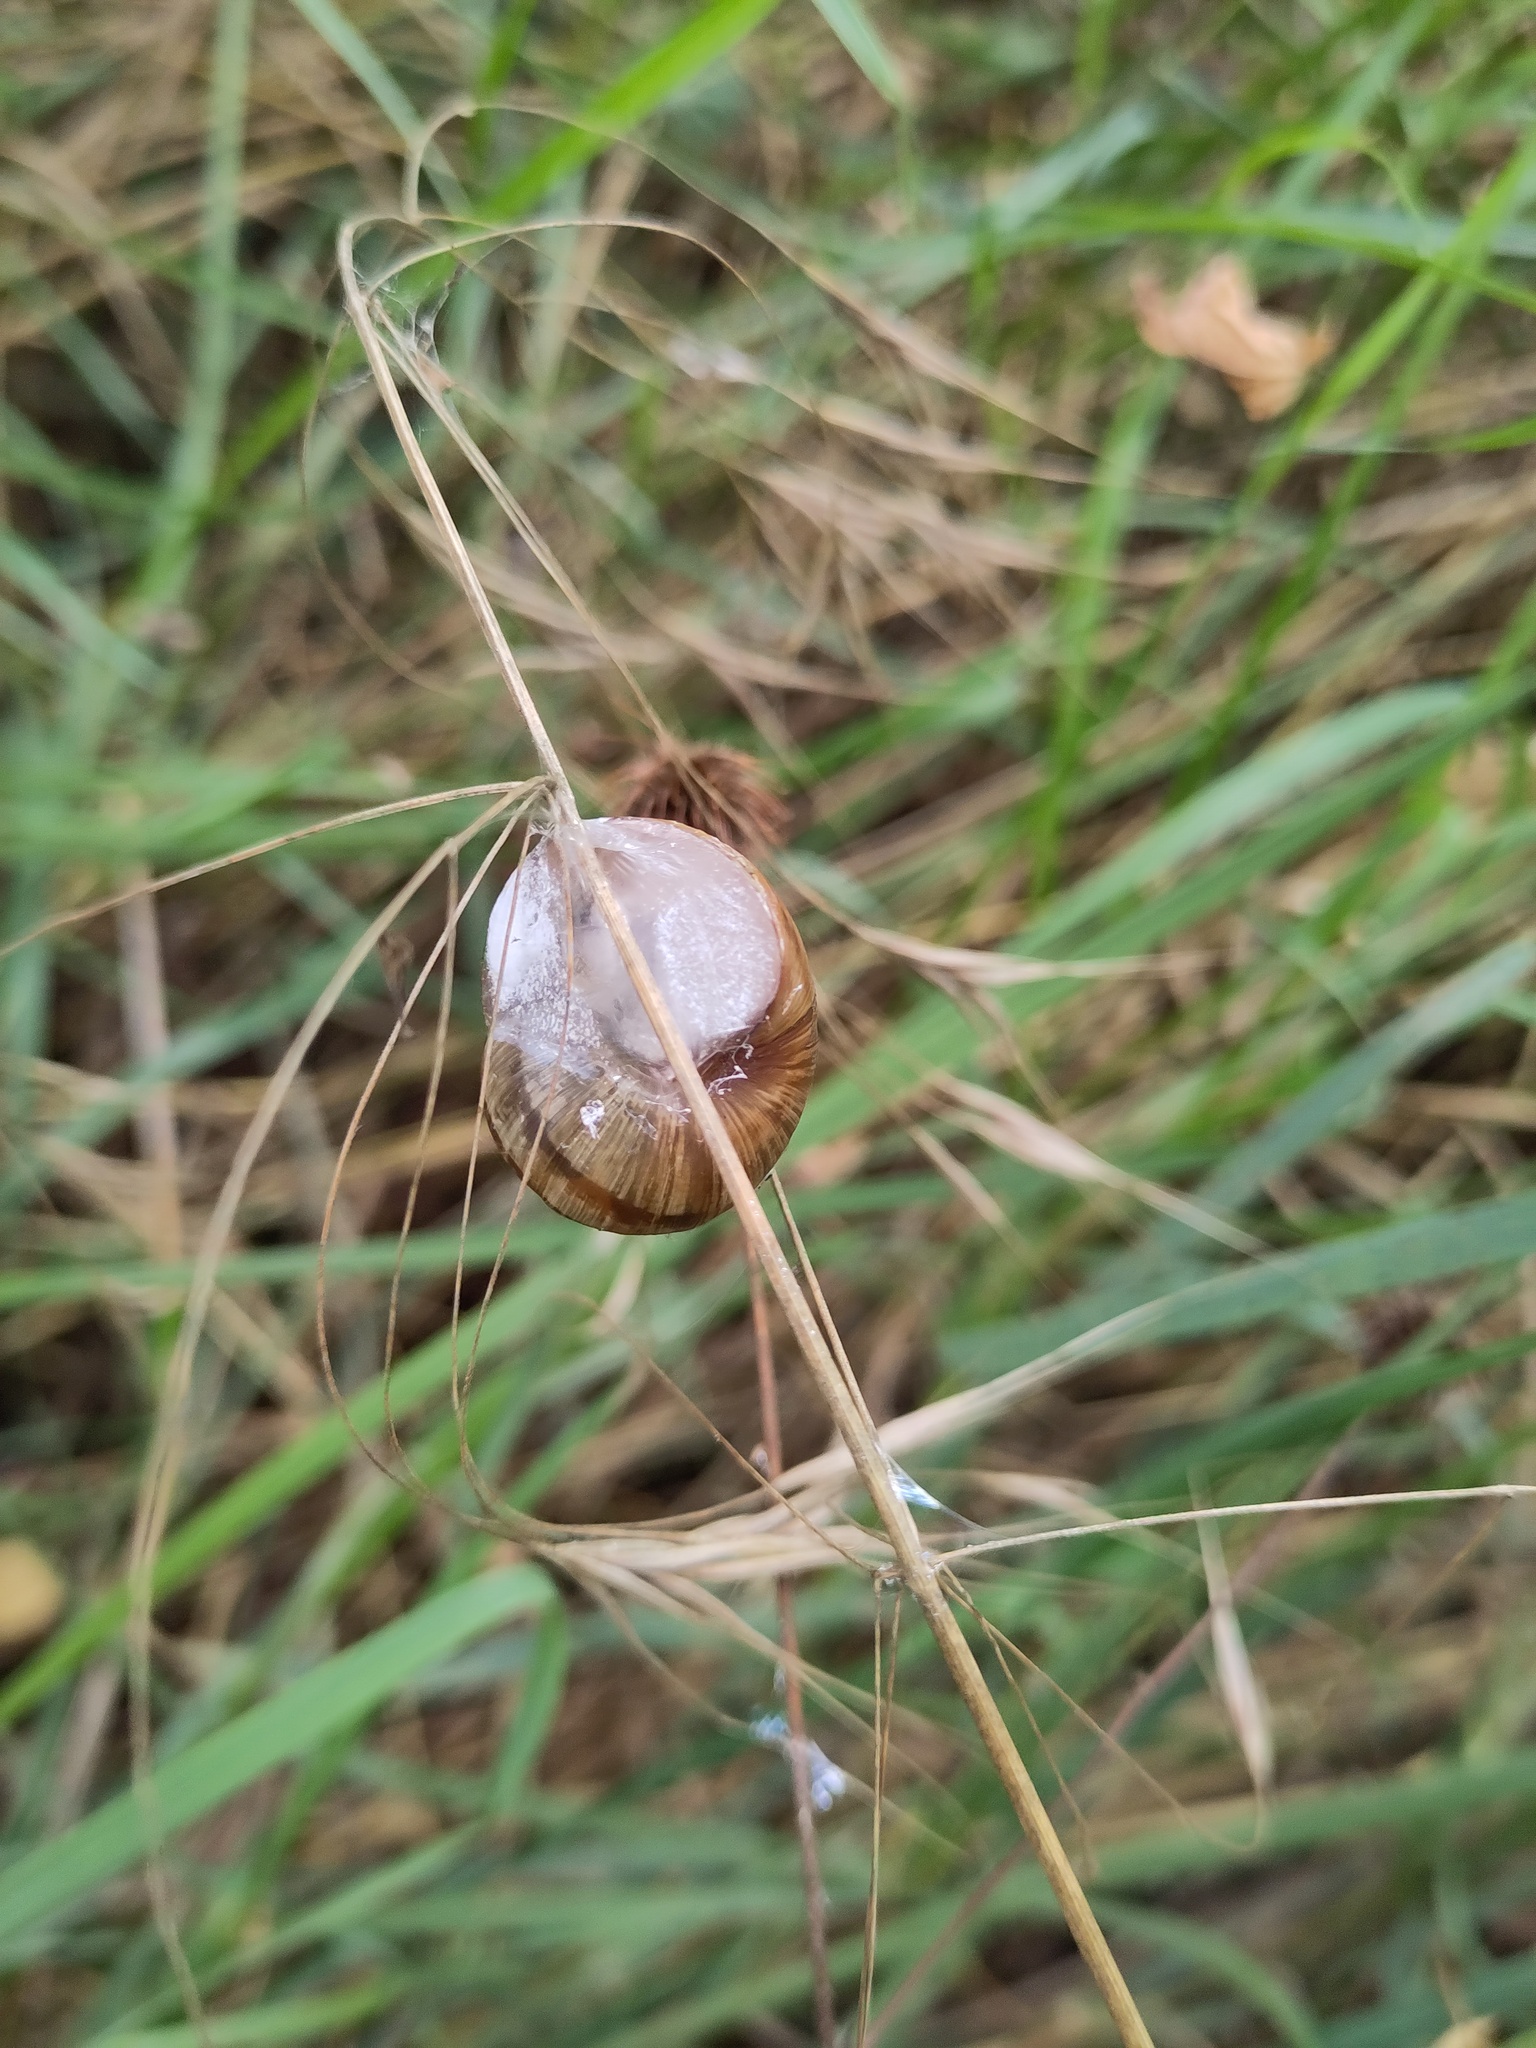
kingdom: Animalia
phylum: Mollusca
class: Gastropoda
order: Stylommatophora
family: Helicidae
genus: Helix
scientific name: Helix pomatia
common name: Roman snail
